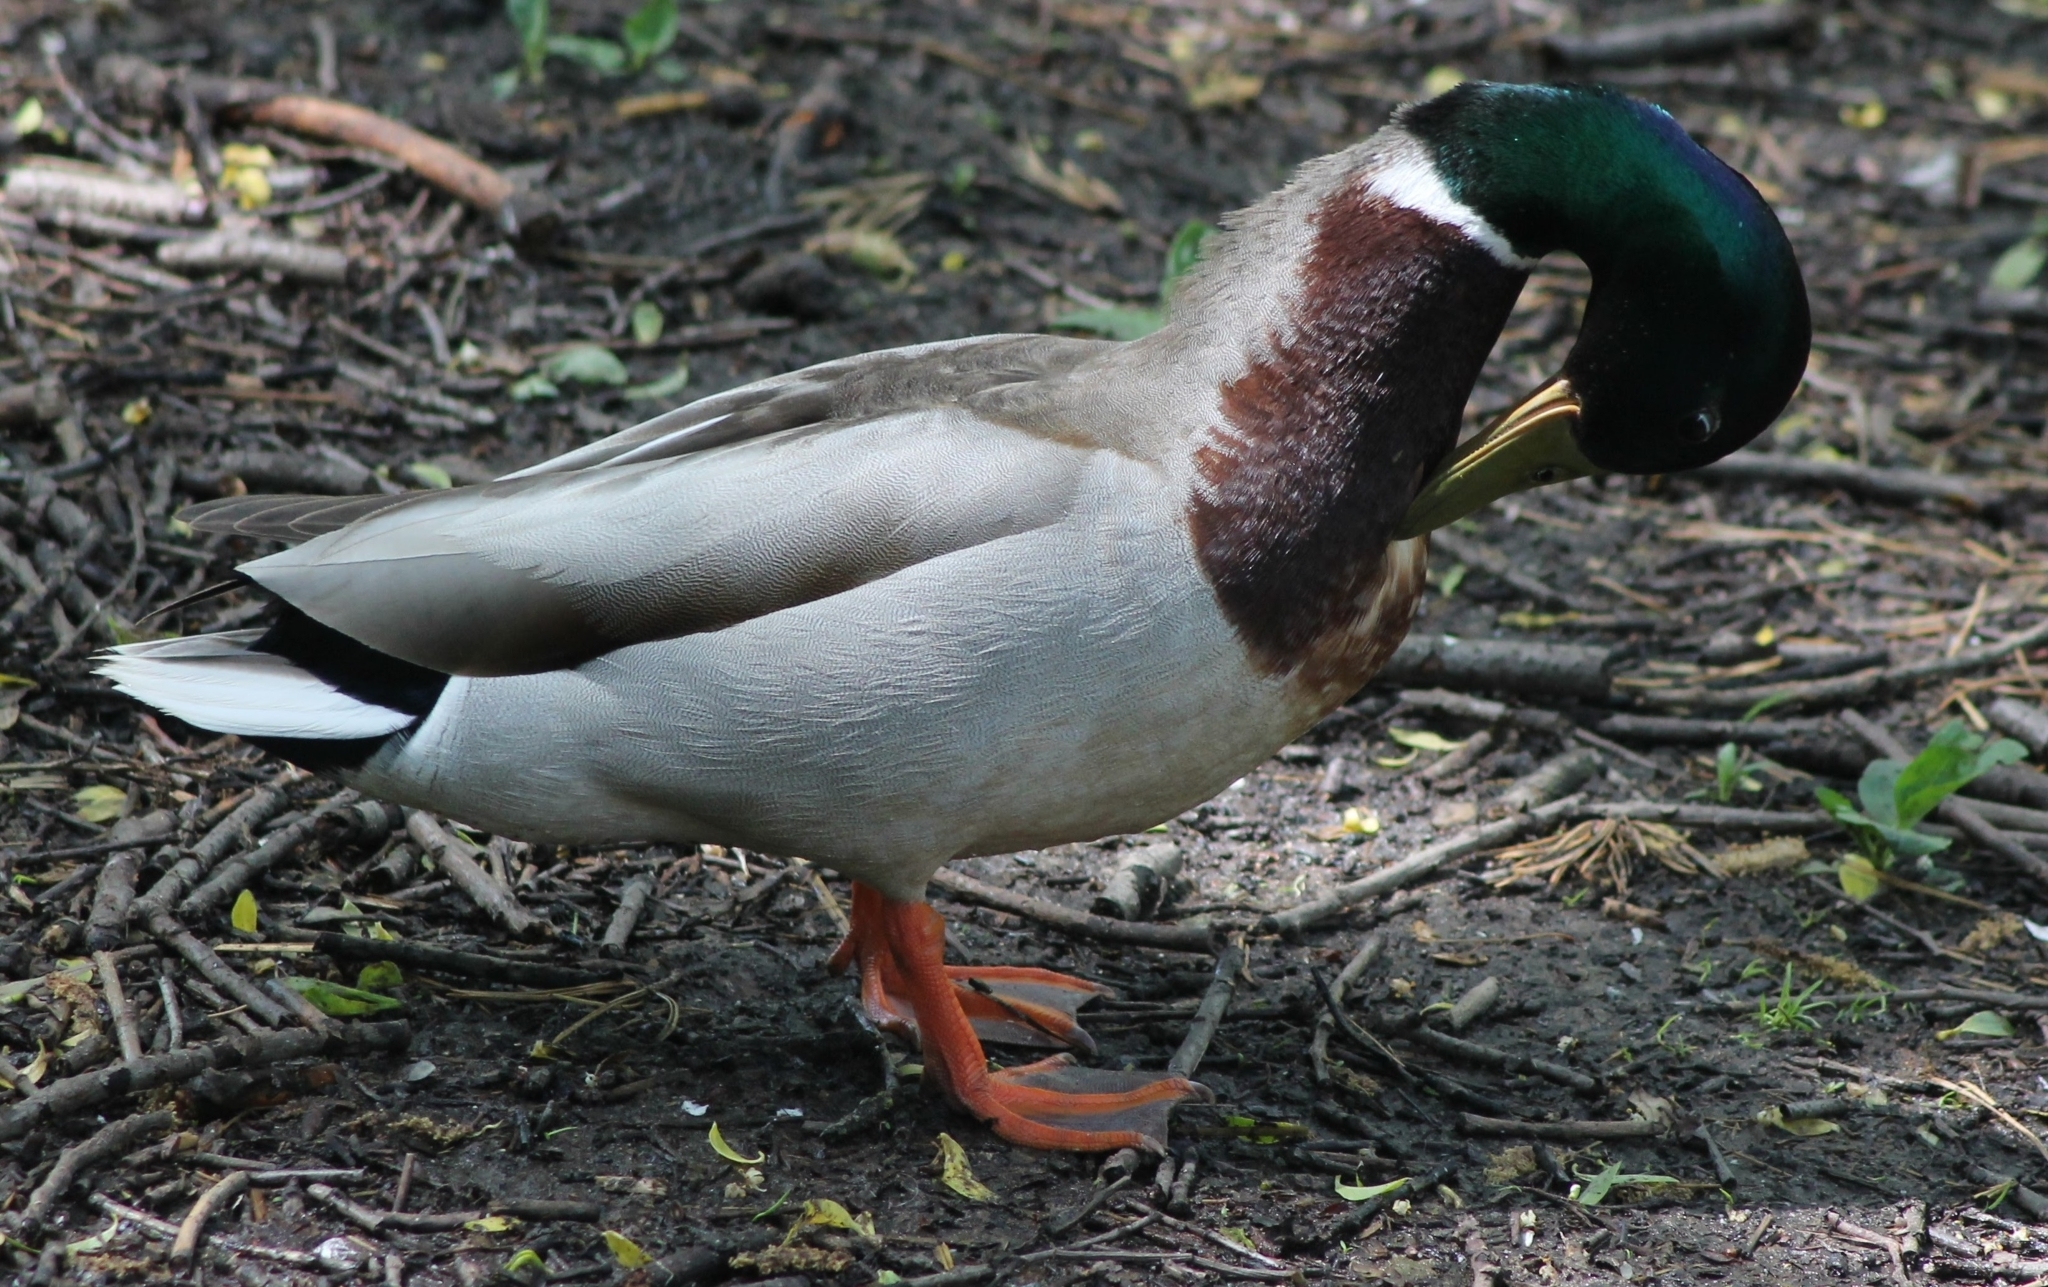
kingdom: Animalia
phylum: Chordata
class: Aves
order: Anseriformes
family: Anatidae
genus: Anas
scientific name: Anas platyrhynchos
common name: Mallard
